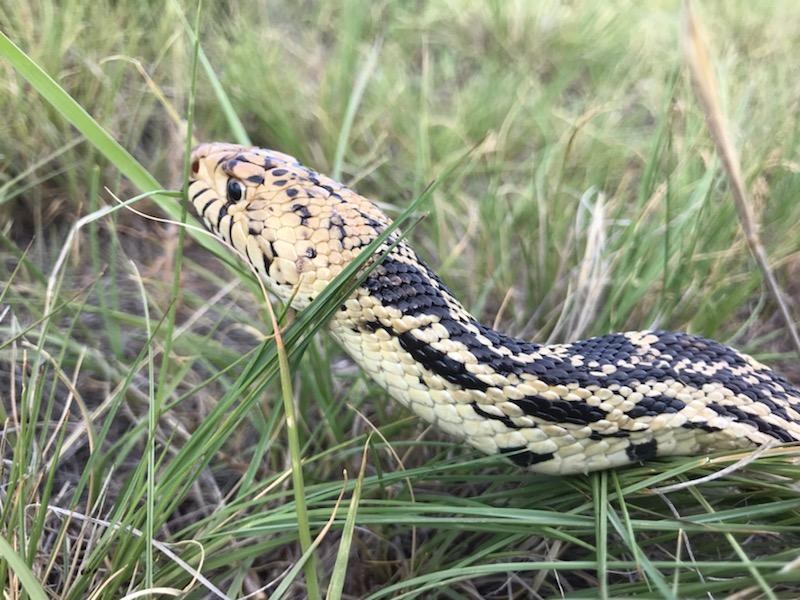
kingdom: Animalia
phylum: Chordata
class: Squamata
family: Colubridae
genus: Pituophis
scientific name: Pituophis catenifer
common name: Gopher snake
